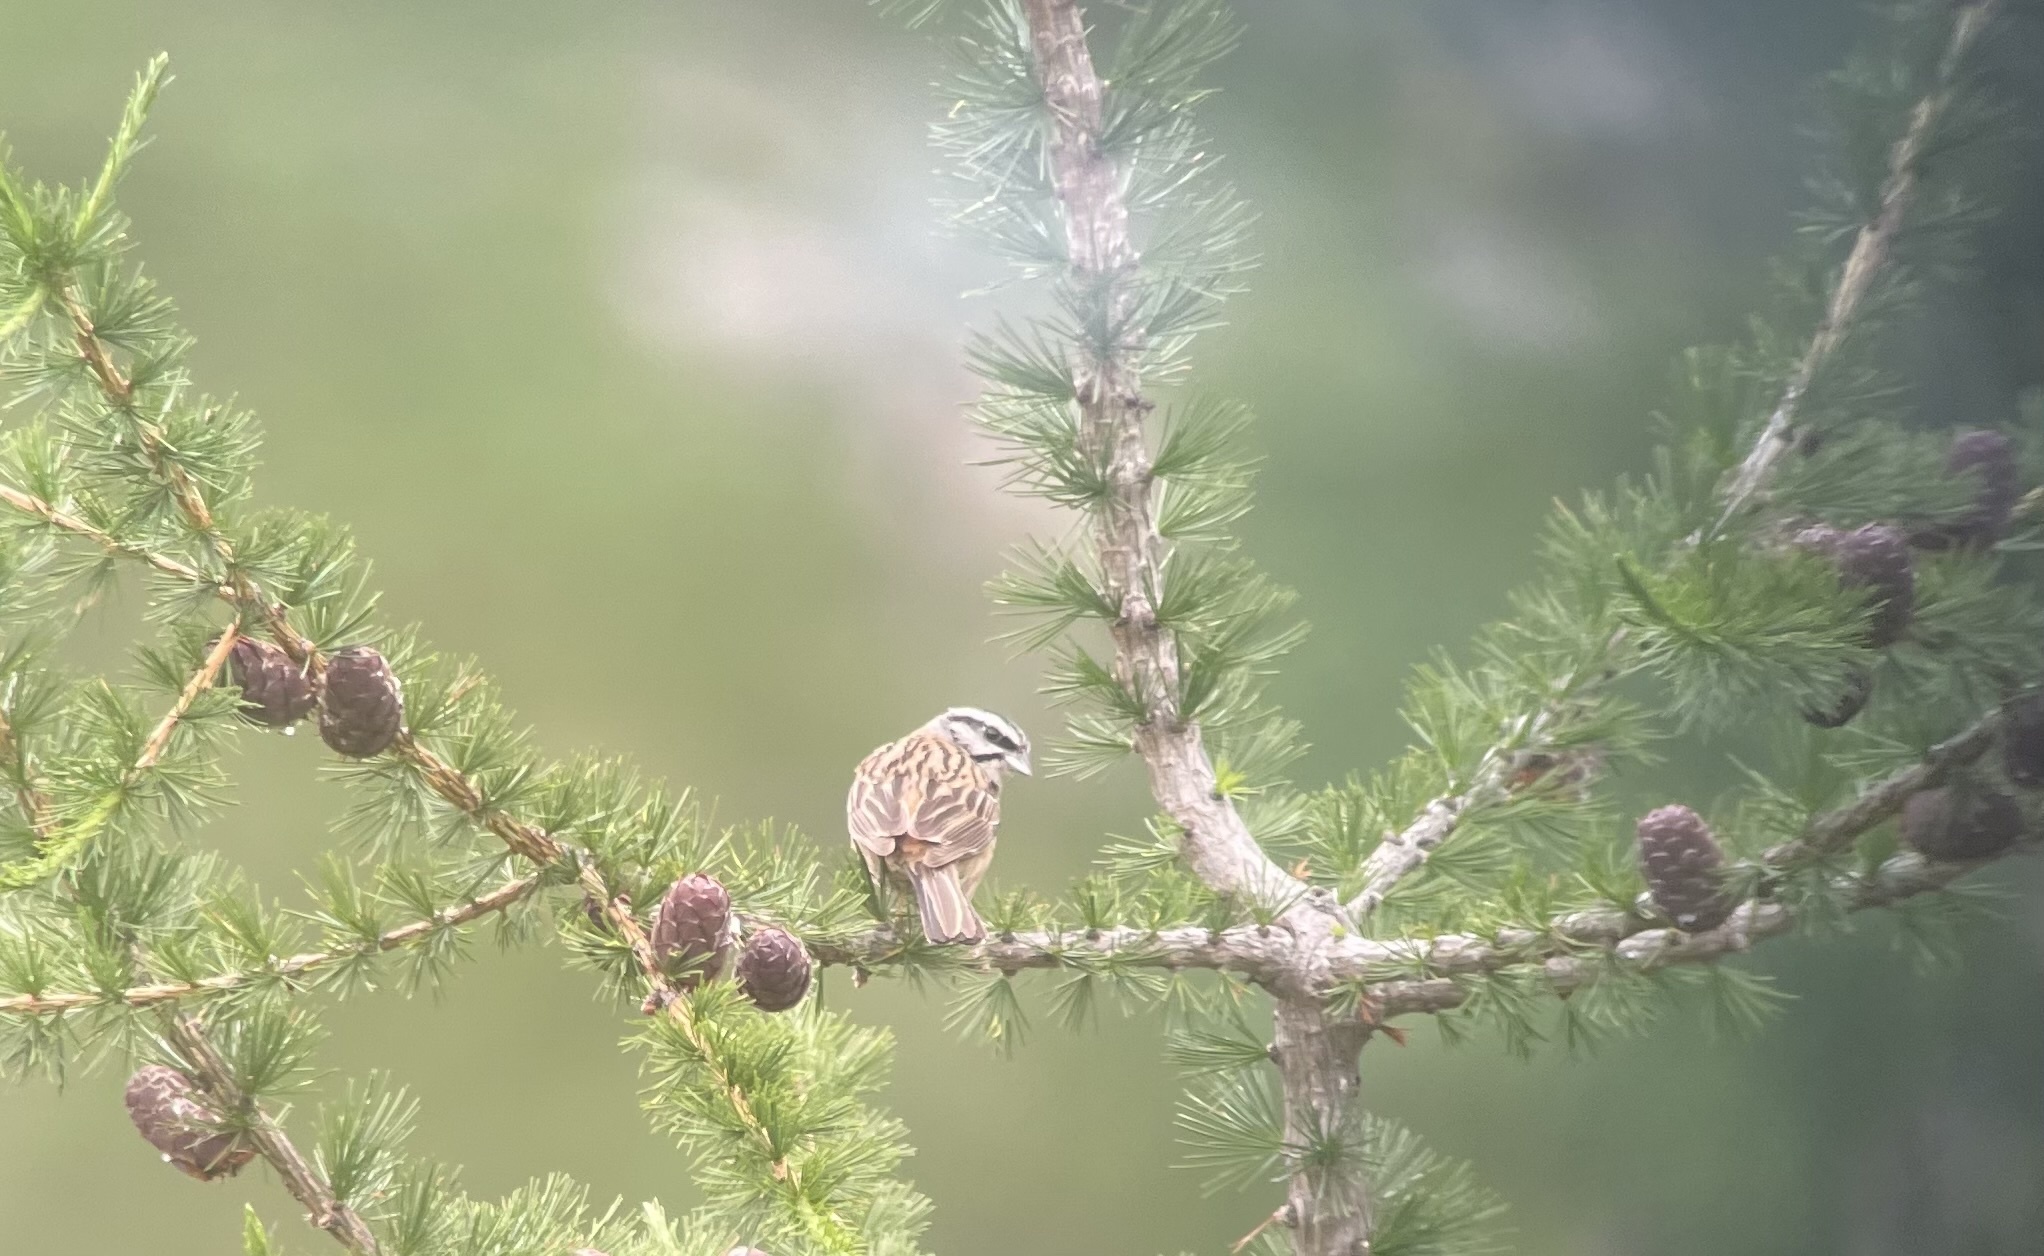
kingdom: Animalia
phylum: Chordata
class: Aves
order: Passeriformes
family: Emberizidae
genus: Emberiza
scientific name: Emberiza cia
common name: Rock bunting
